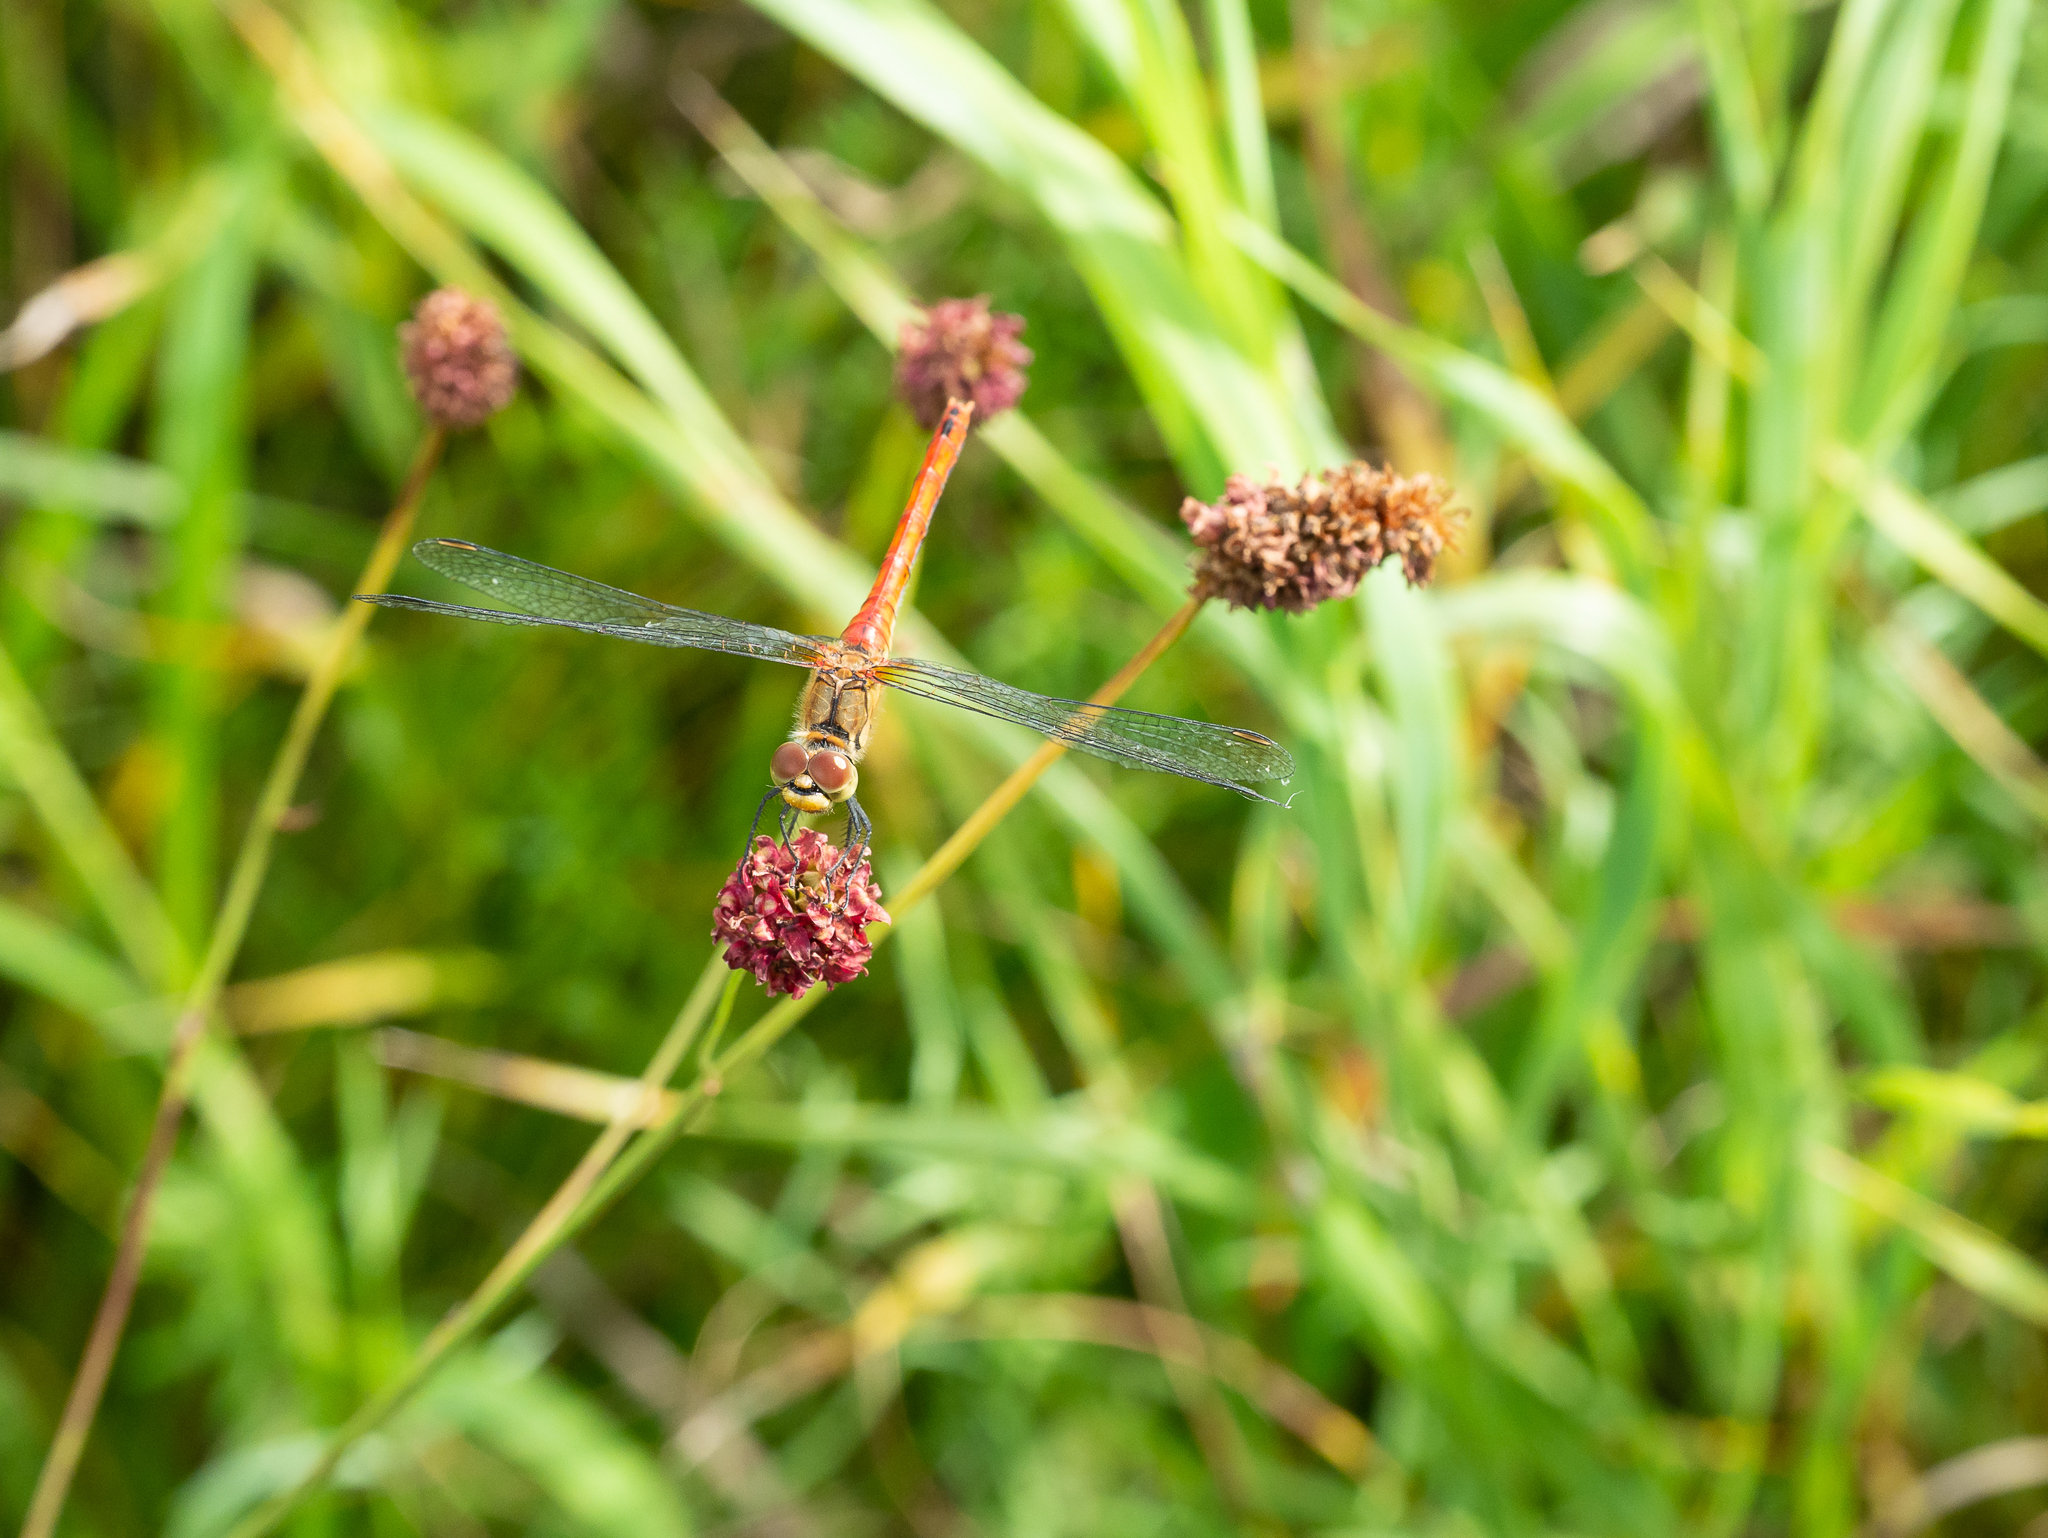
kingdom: Animalia
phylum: Arthropoda
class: Insecta
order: Odonata
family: Libellulidae
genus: Sympetrum
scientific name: Sympetrum sanguineum
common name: Ruddy darter
